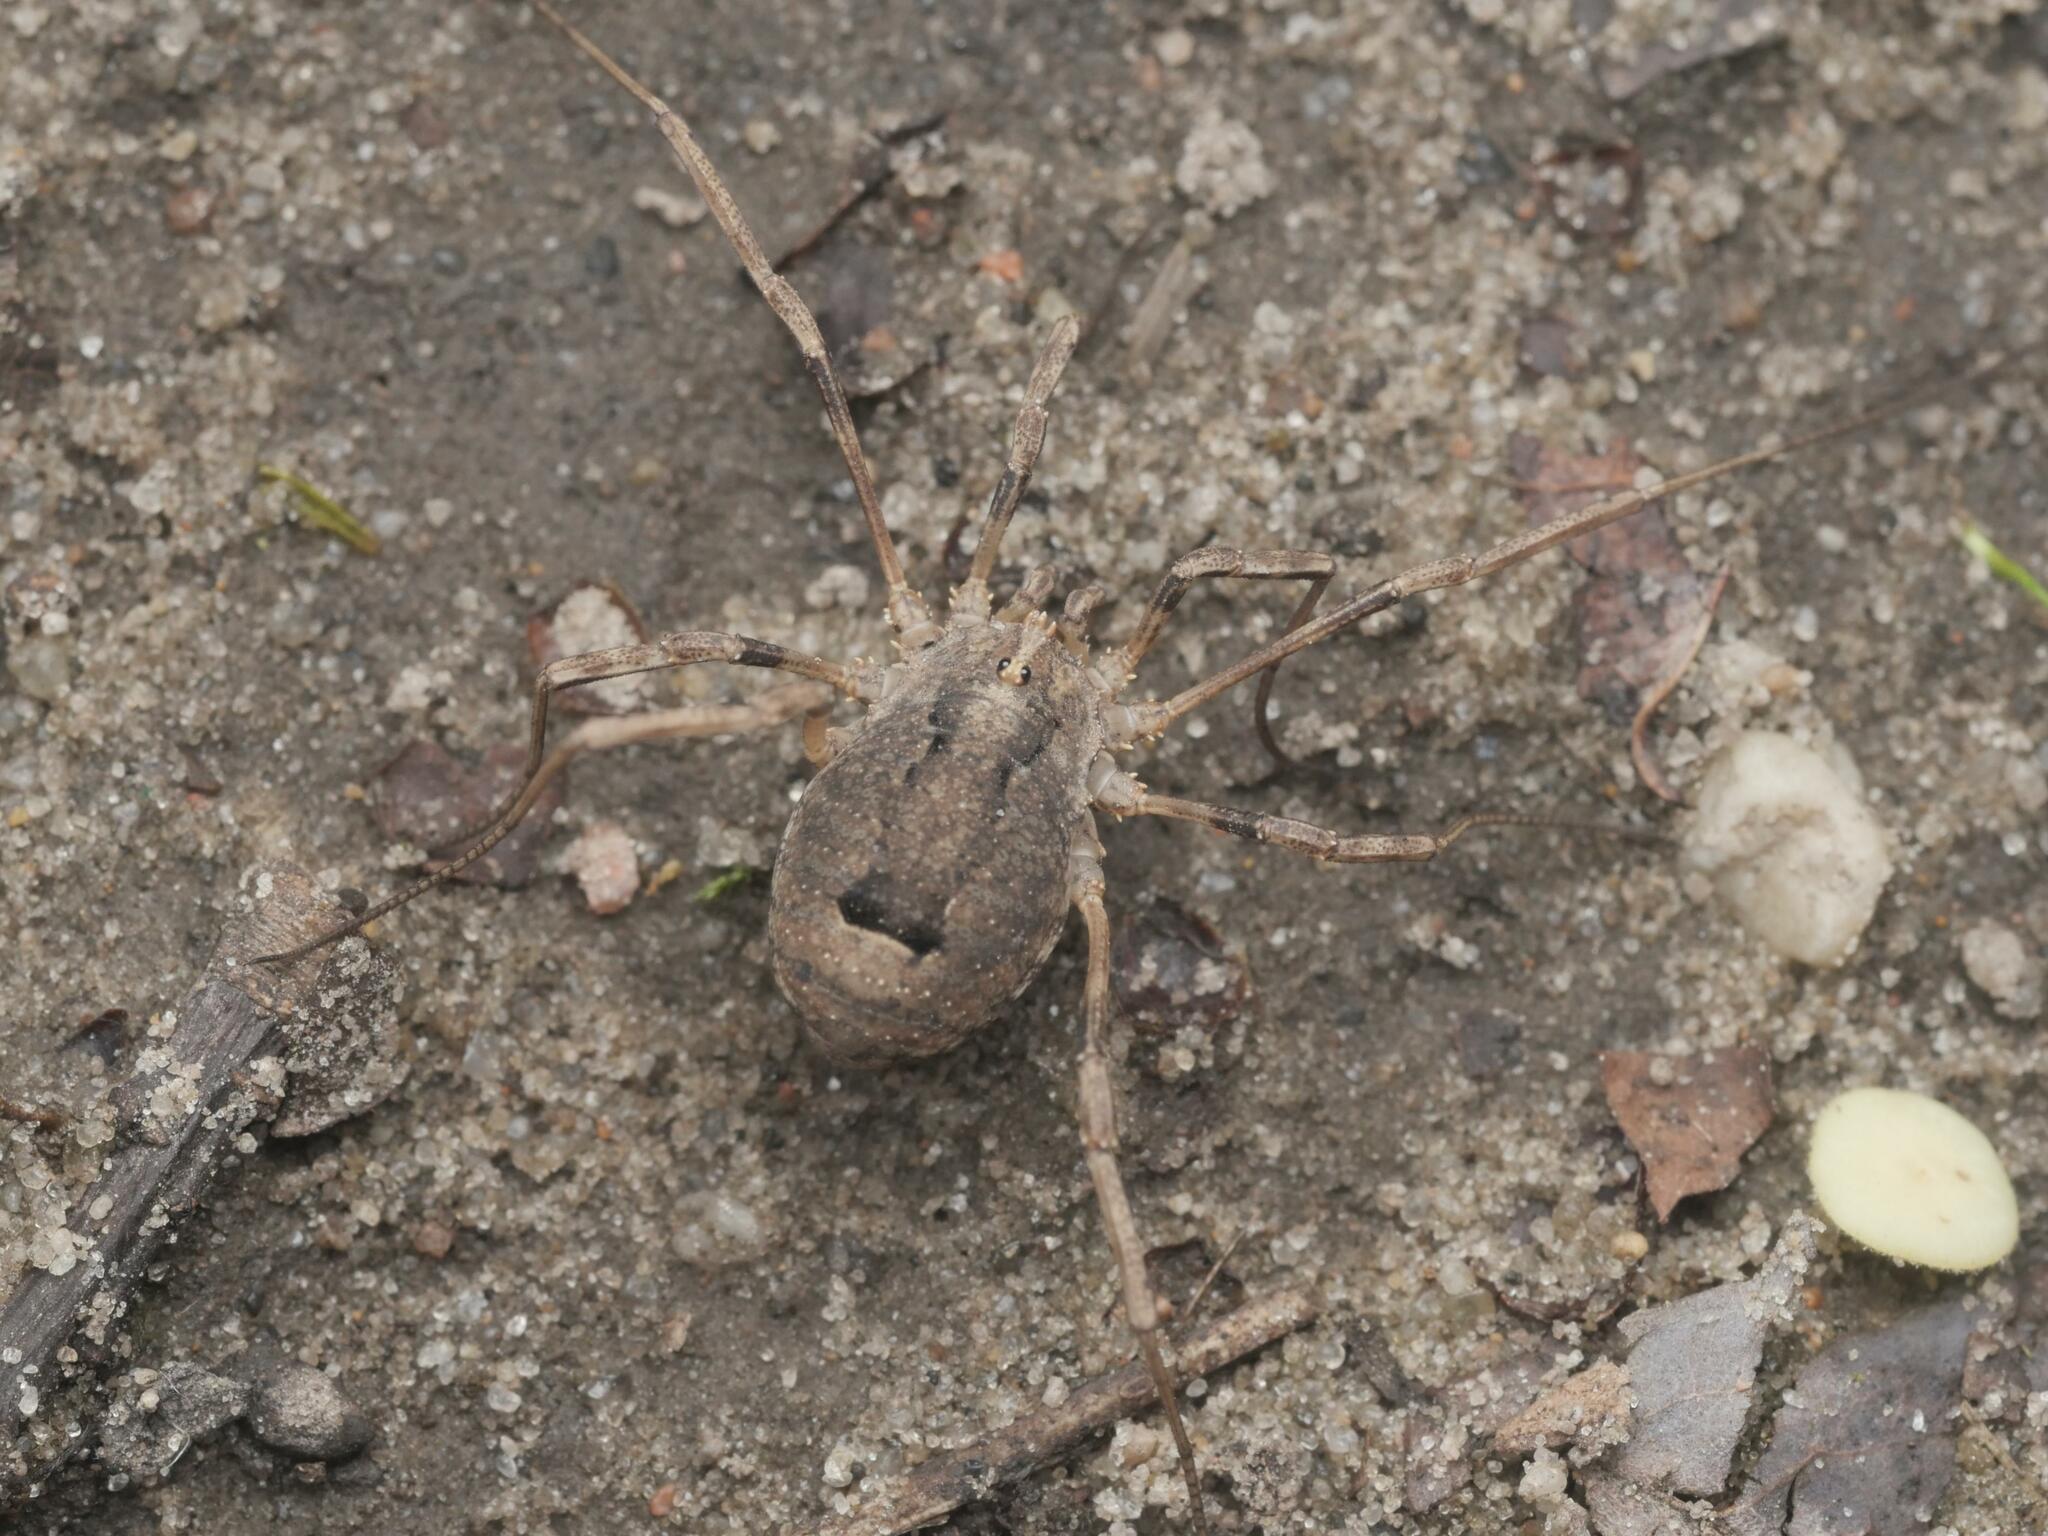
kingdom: Animalia
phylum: Arthropoda
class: Arachnida
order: Opiliones
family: Phalangiidae
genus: Odiellus
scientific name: Odiellus spinosus
